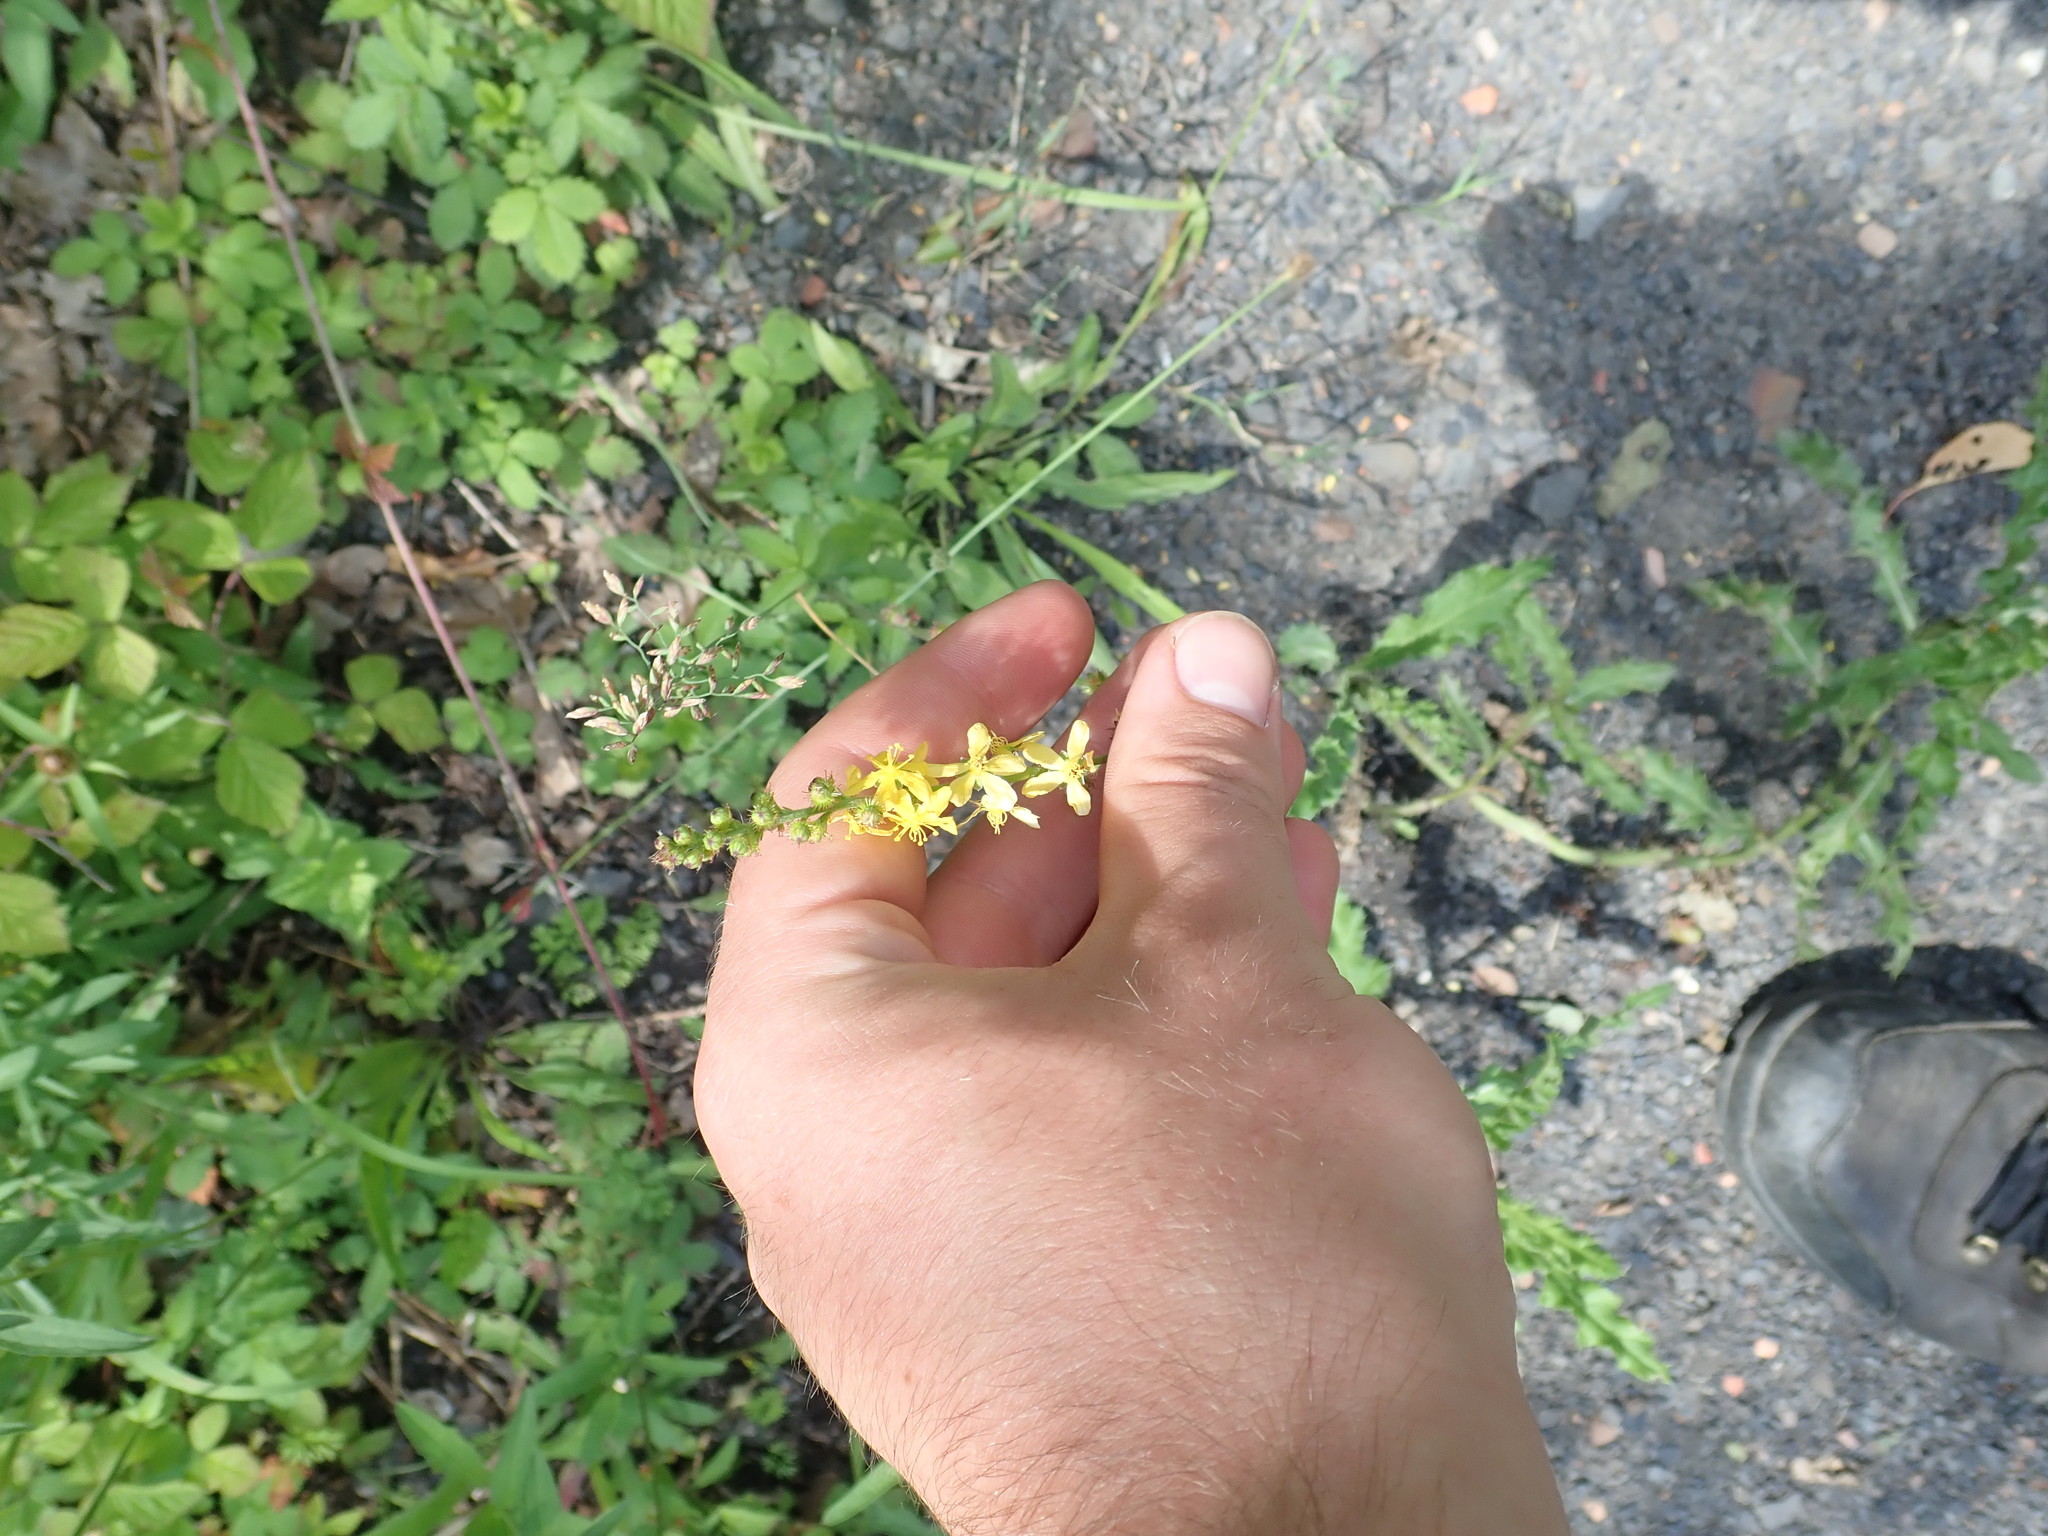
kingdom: Plantae
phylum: Tracheophyta
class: Magnoliopsida
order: Rosales
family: Rosaceae
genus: Agrimonia
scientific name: Agrimonia eupatoria
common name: Agrimony
